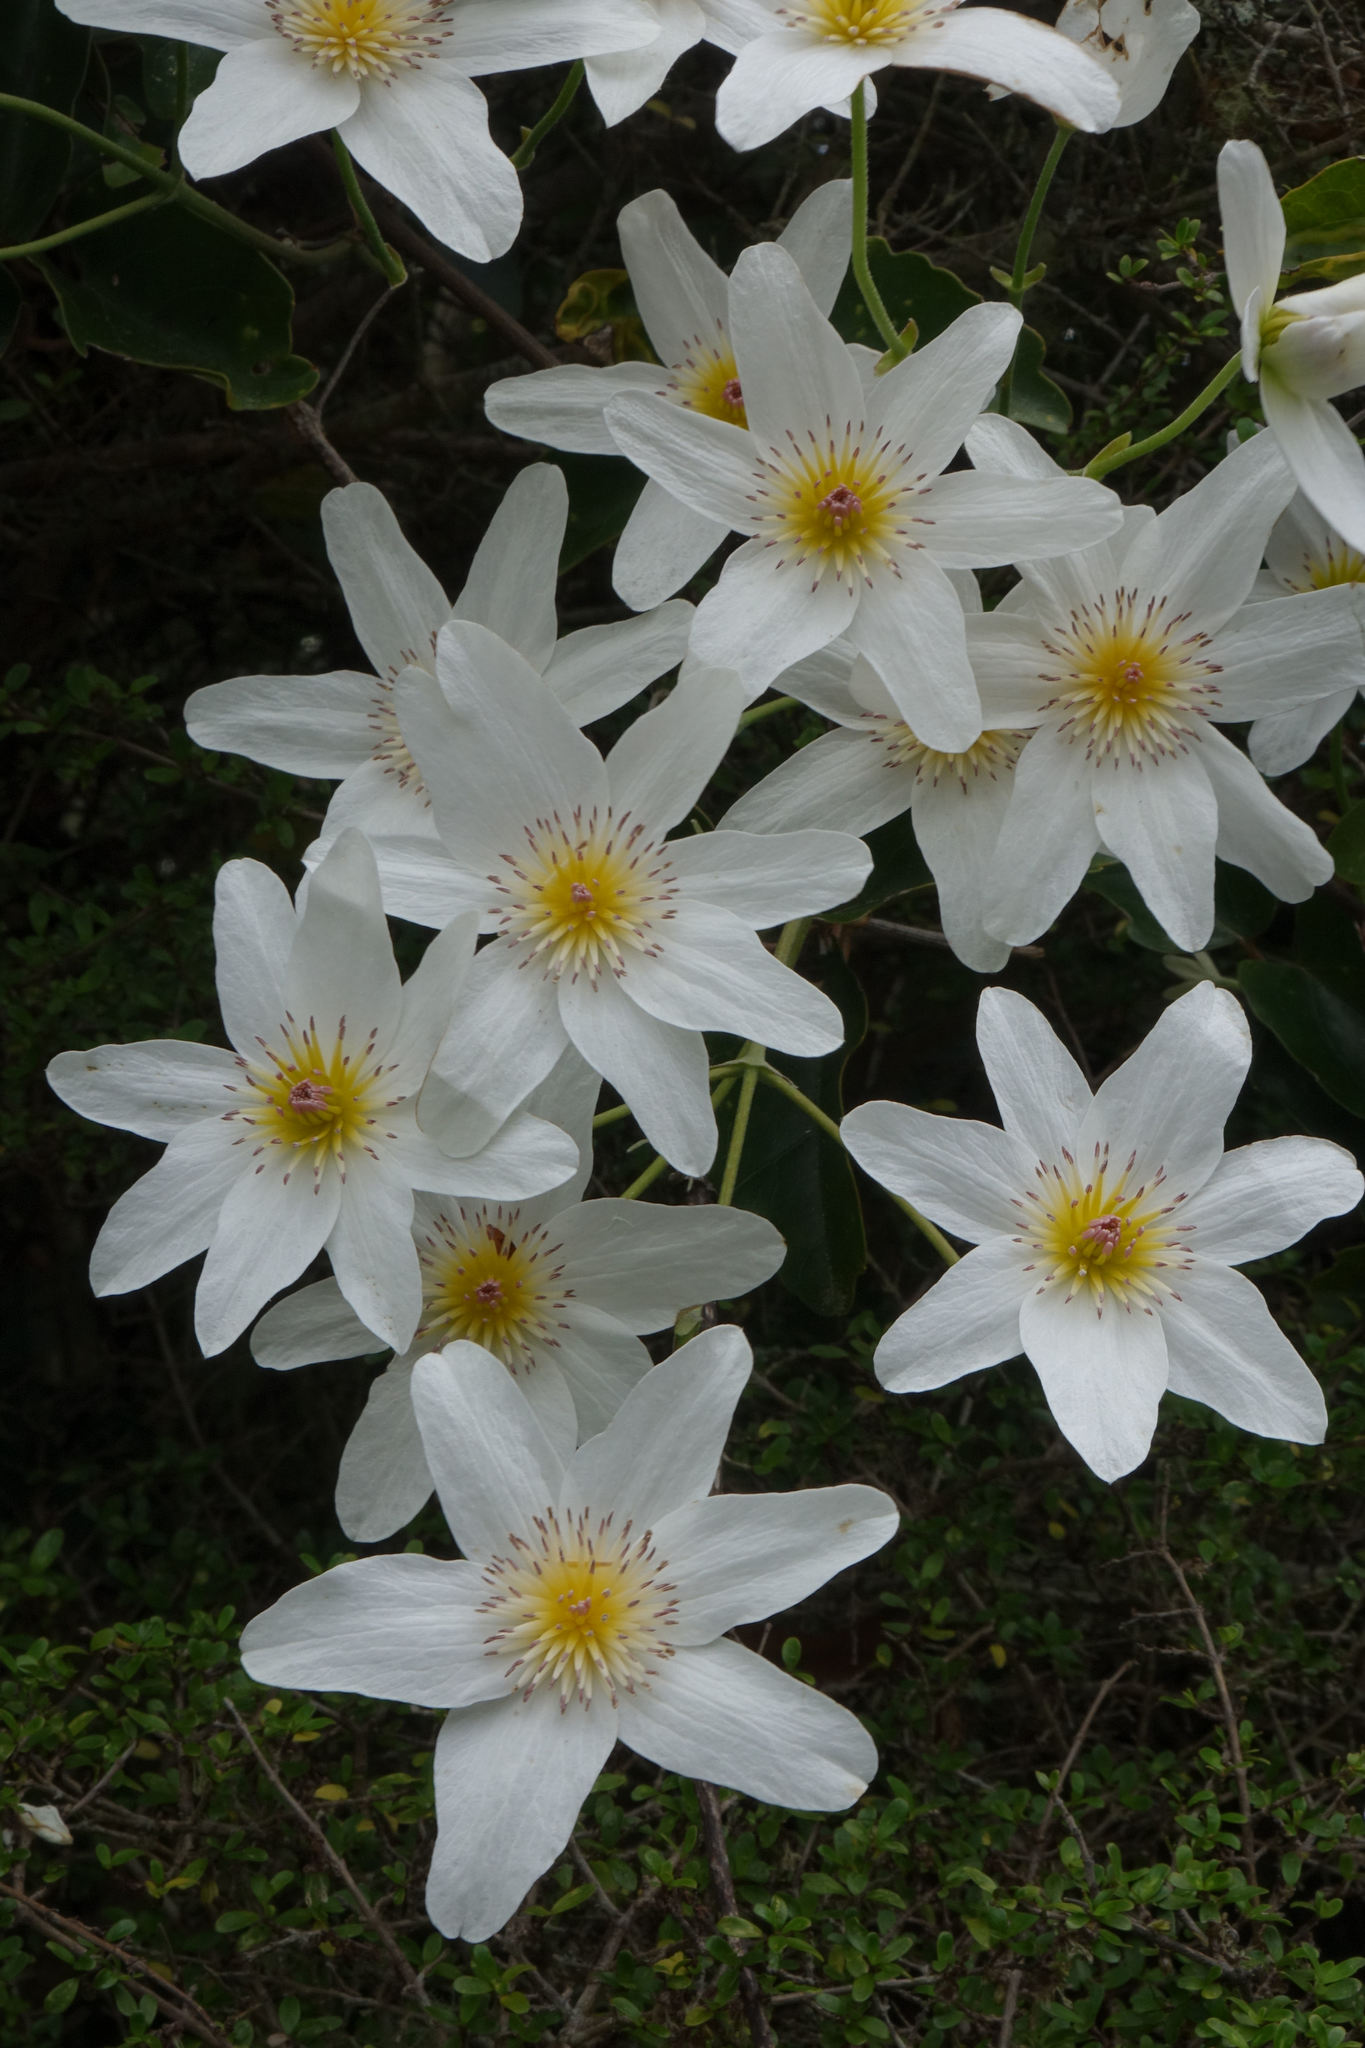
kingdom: Plantae
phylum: Tracheophyta
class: Magnoliopsida
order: Ranunculales
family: Ranunculaceae
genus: Clematis
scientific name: Clematis paniculata
